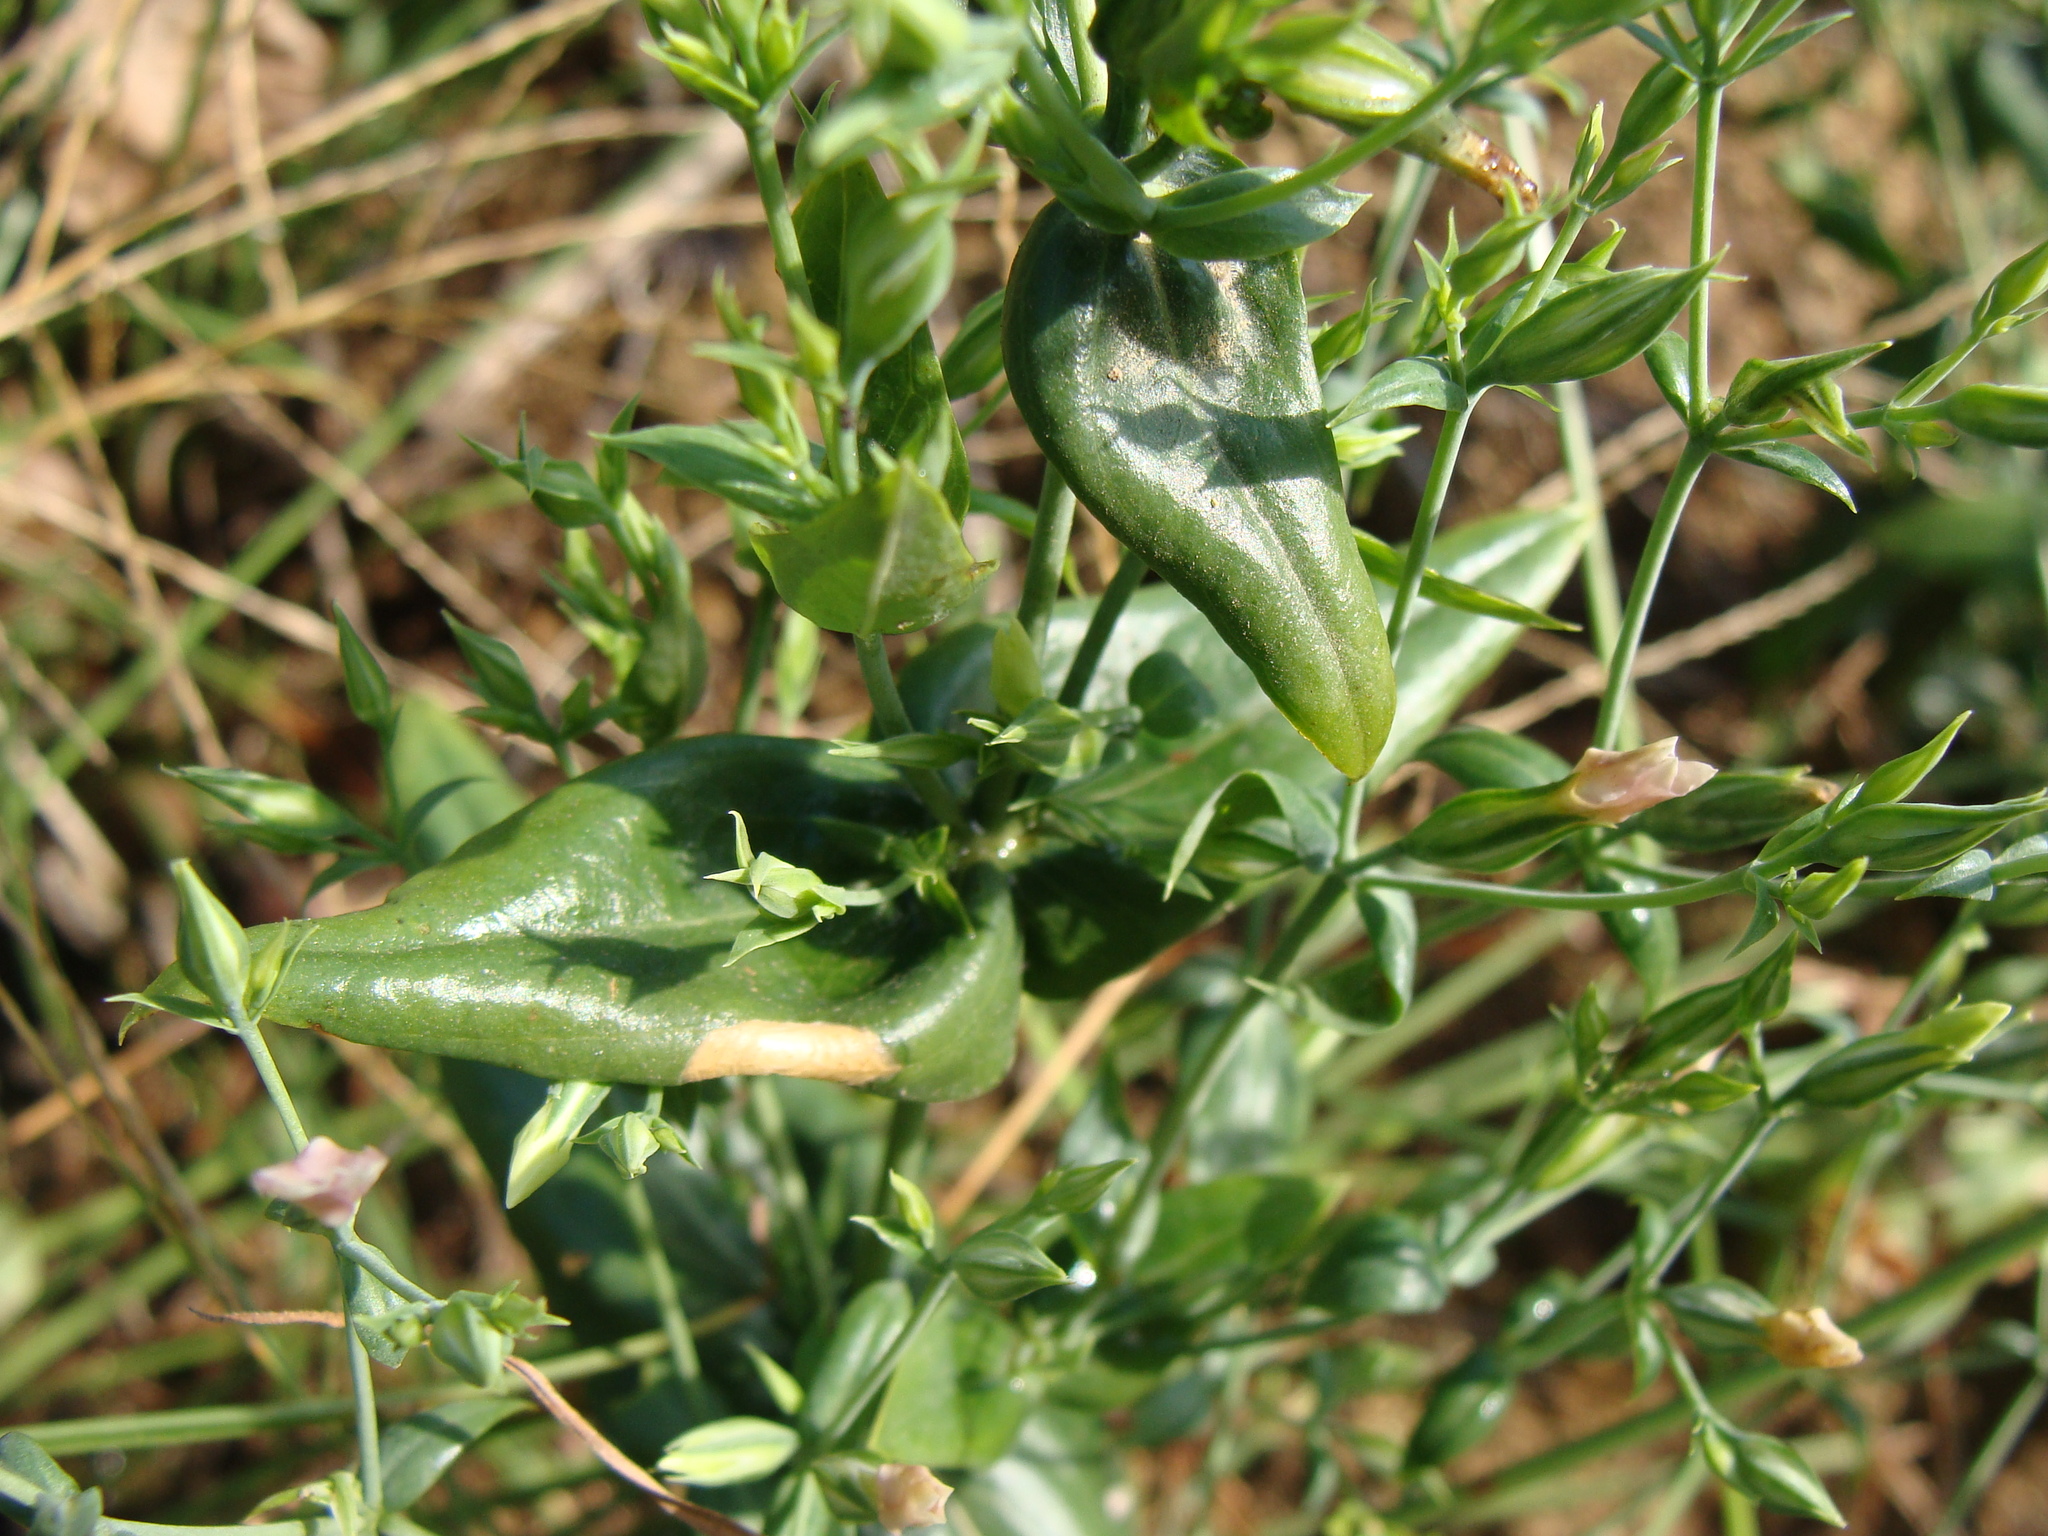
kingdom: Plantae
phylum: Tracheophyta
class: Magnoliopsida
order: Gentianales
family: Gentianaceae
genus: Schultesia
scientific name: Schultesia lisianthoides
